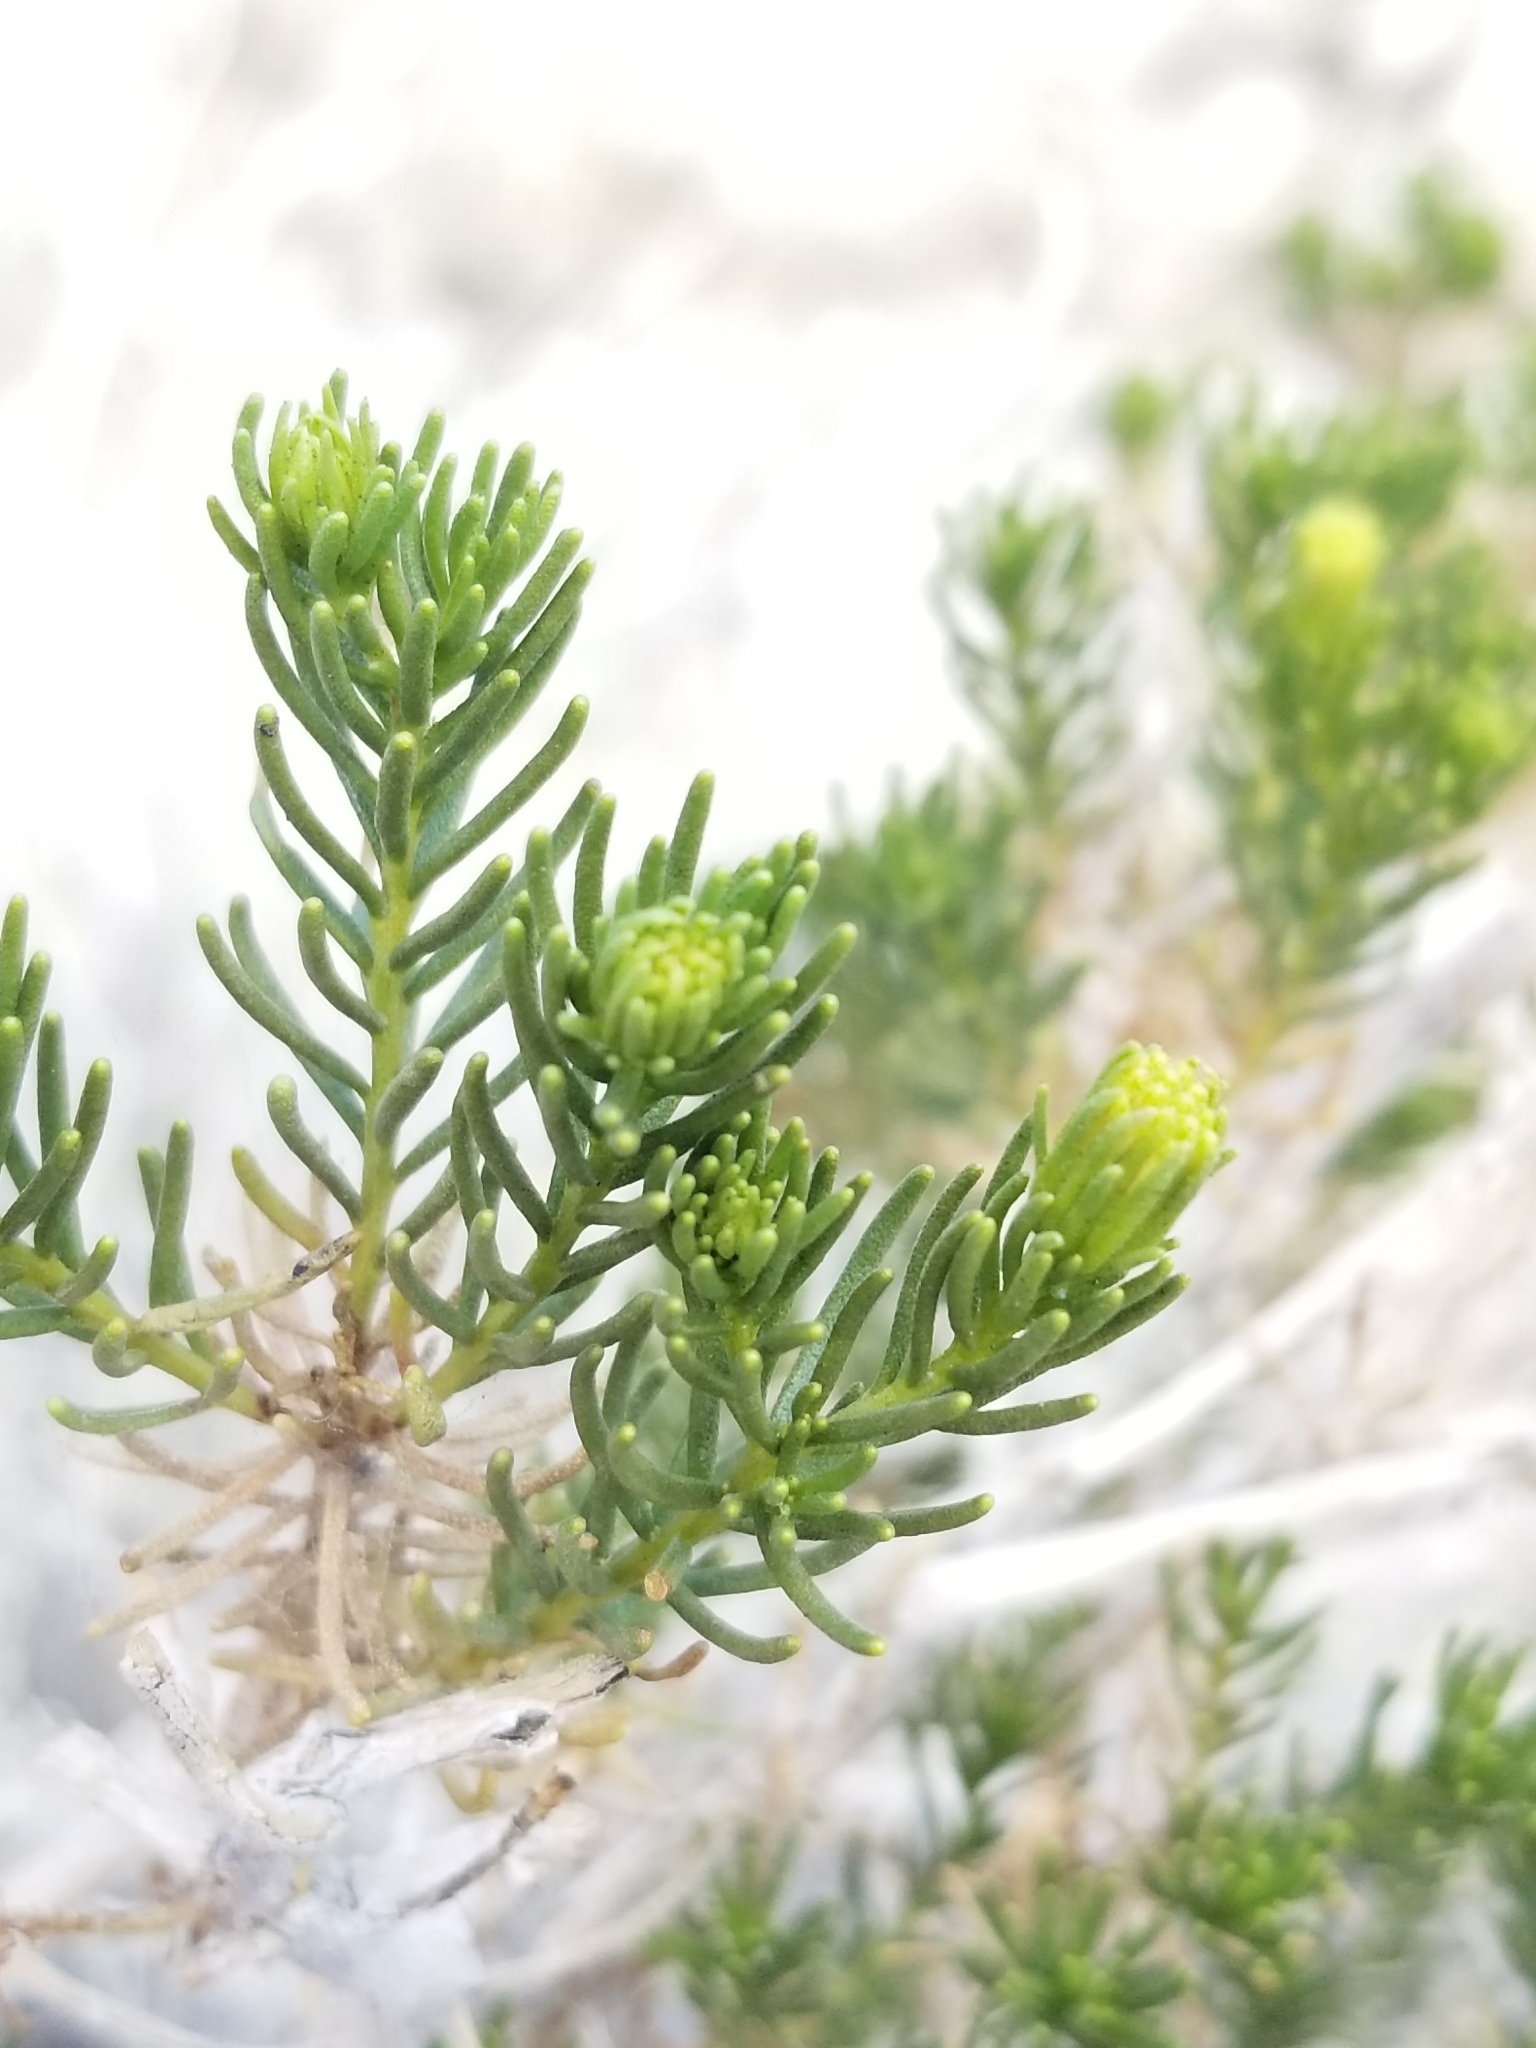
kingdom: Plantae
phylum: Tracheophyta
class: Magnoliopsida
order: Asterales
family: Asteraceae
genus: Peucephyllum
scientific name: Peucephyllum schottii
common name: Pygmy-cedar
